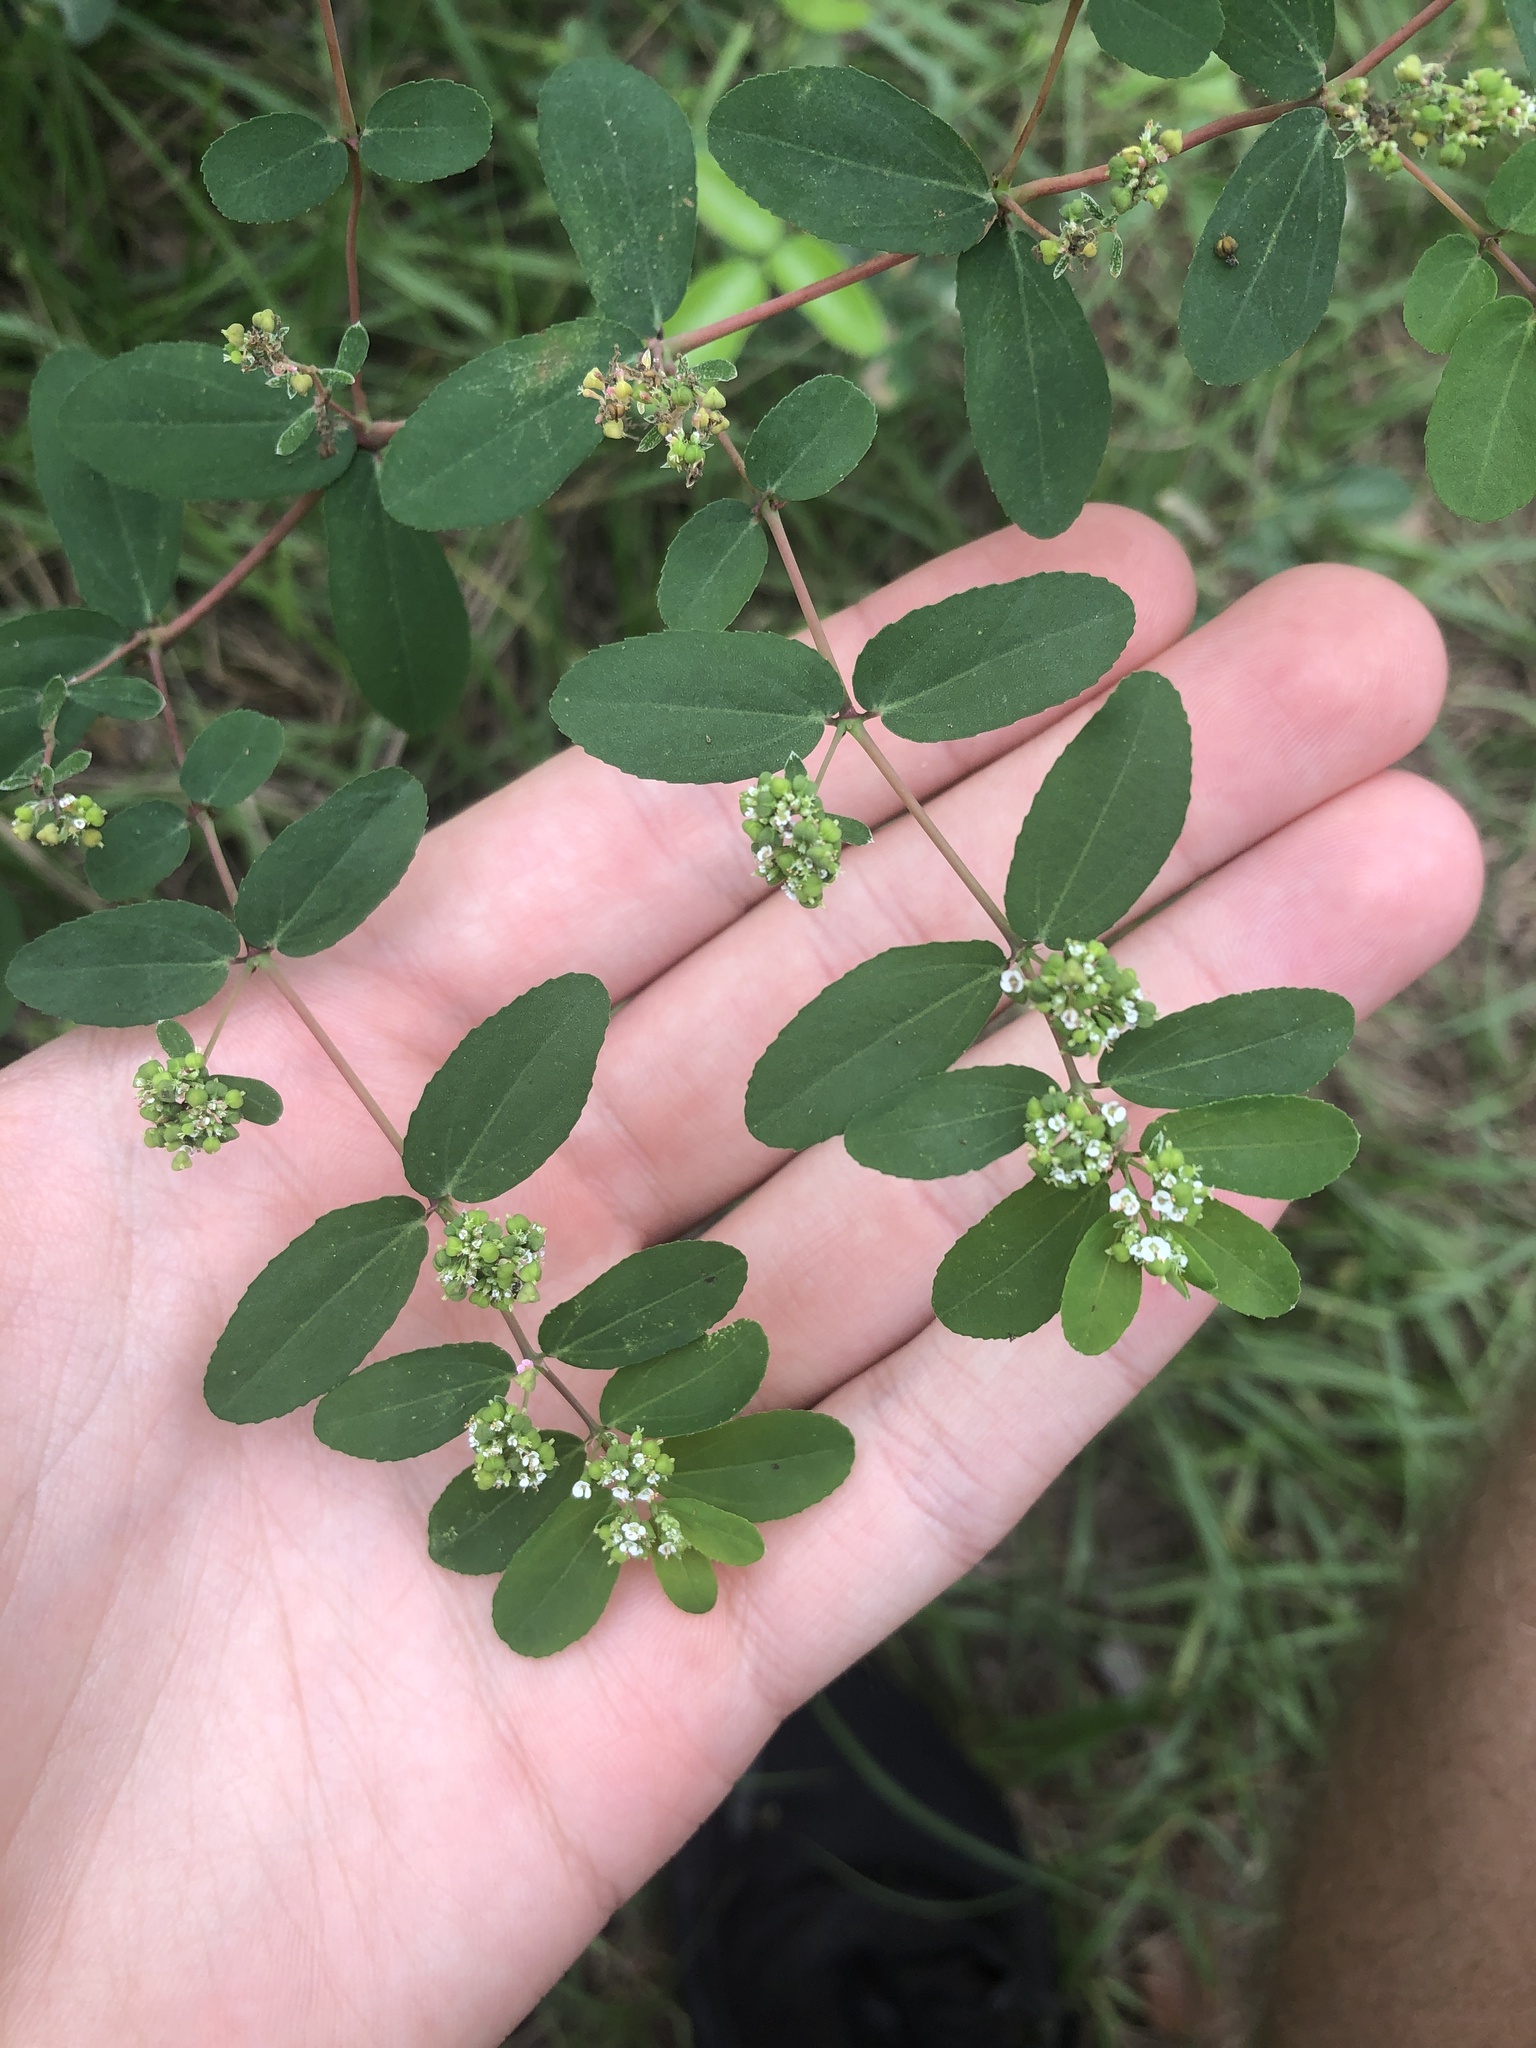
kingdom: Plantae
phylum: Tracheophyta
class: Magnoliopsida
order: Malpighiales
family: Euphorbiaceae
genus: Euphorbia
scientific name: Euphorbia hypericifolia
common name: Graceful sandmat
